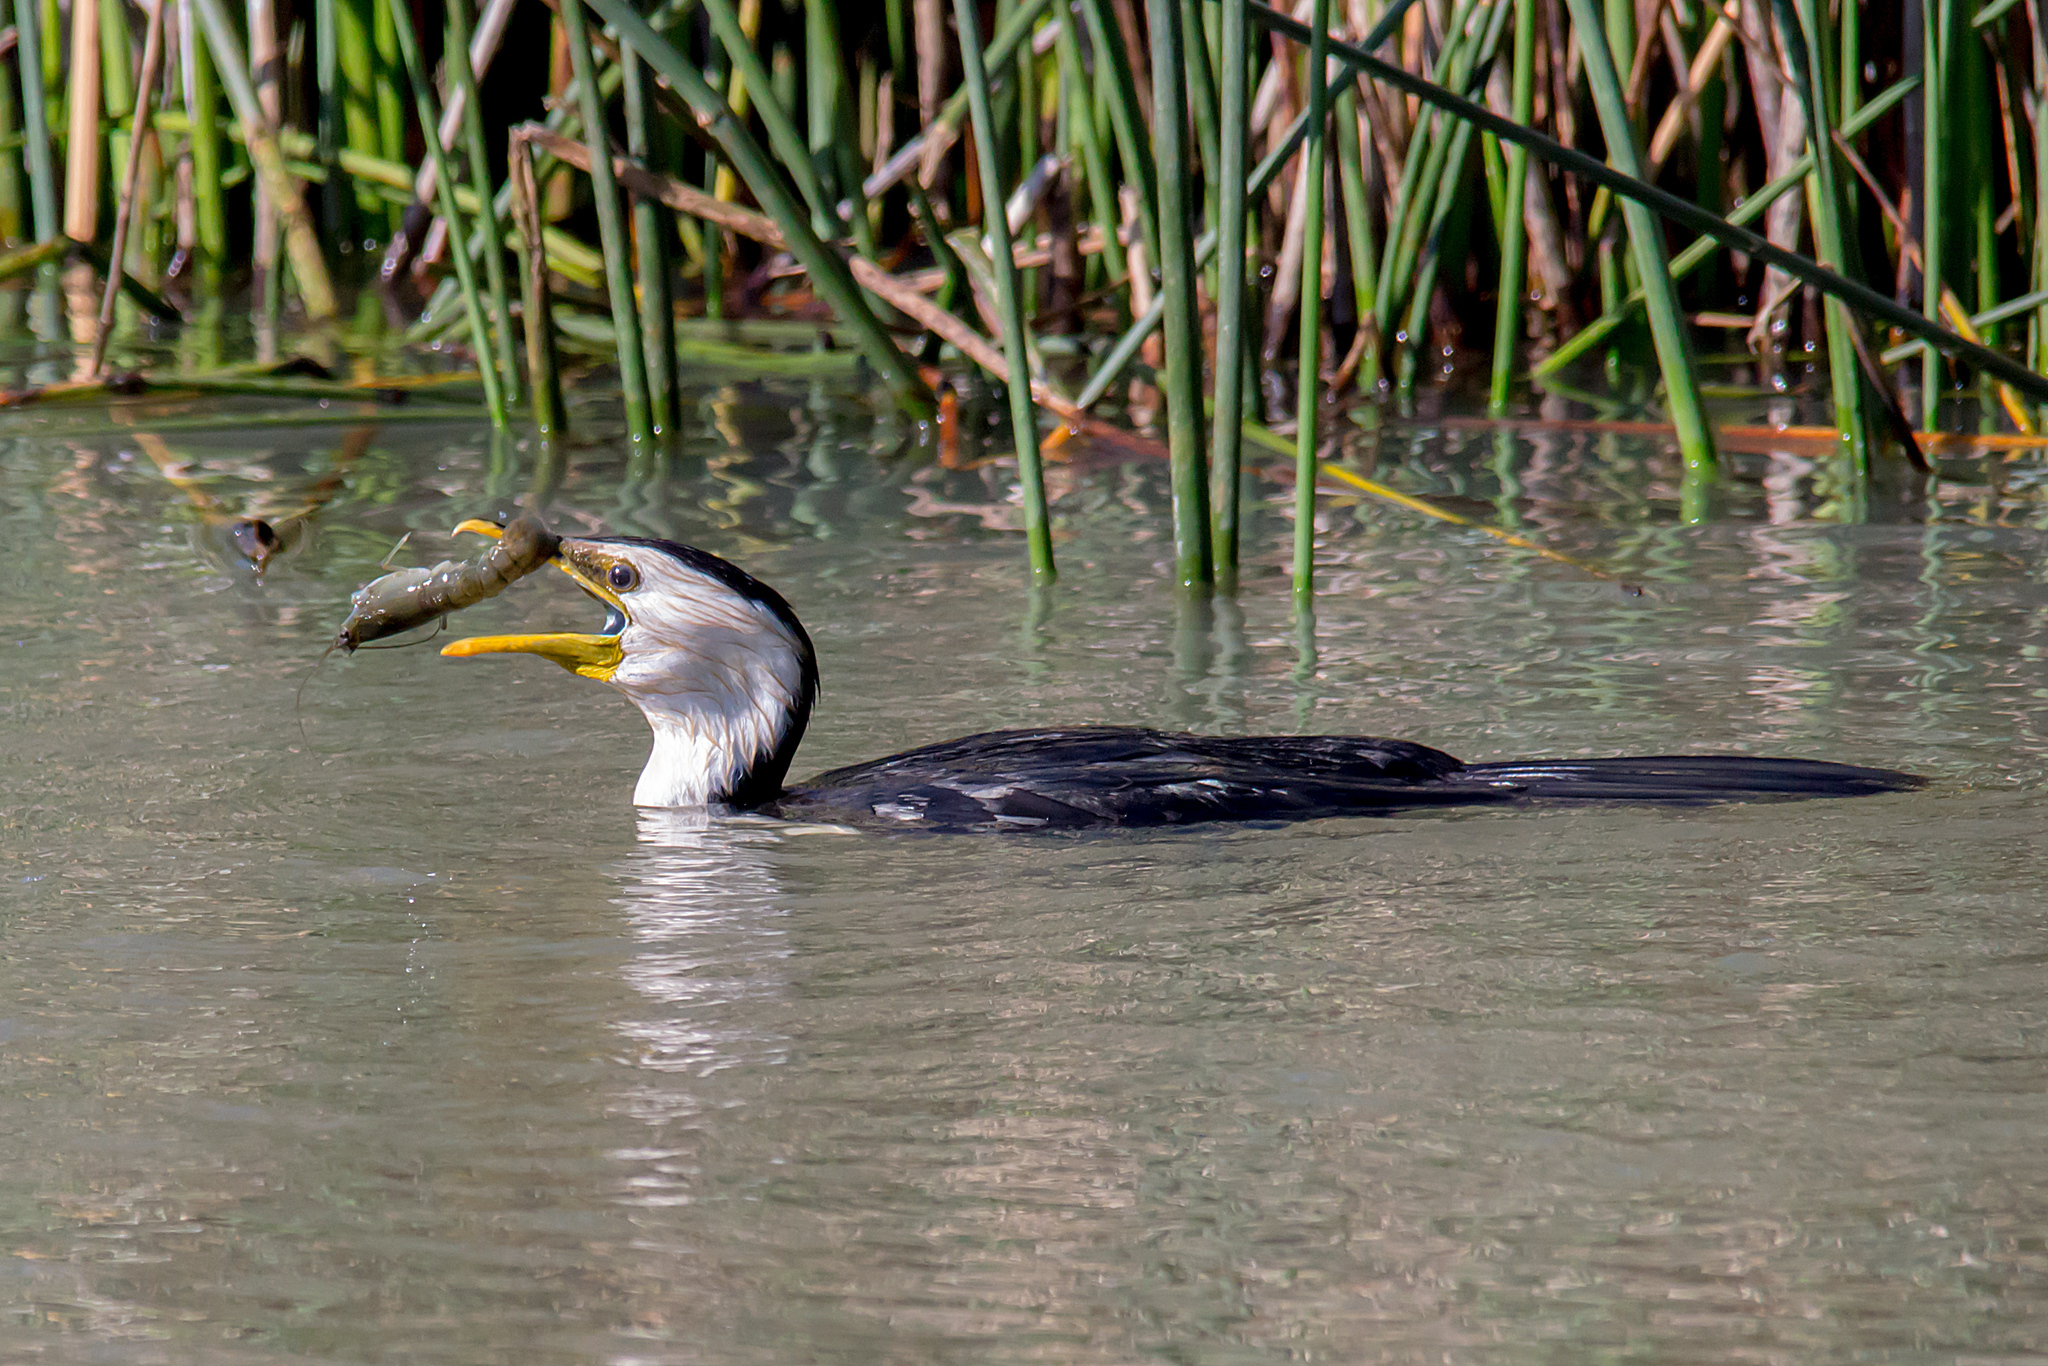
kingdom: Animalia
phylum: Chordata
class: Aves
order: Suliformes
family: Phalacrocoracidae
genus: Microcarbo
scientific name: Microcarbo melanoleucos
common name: Little pied cormorant
